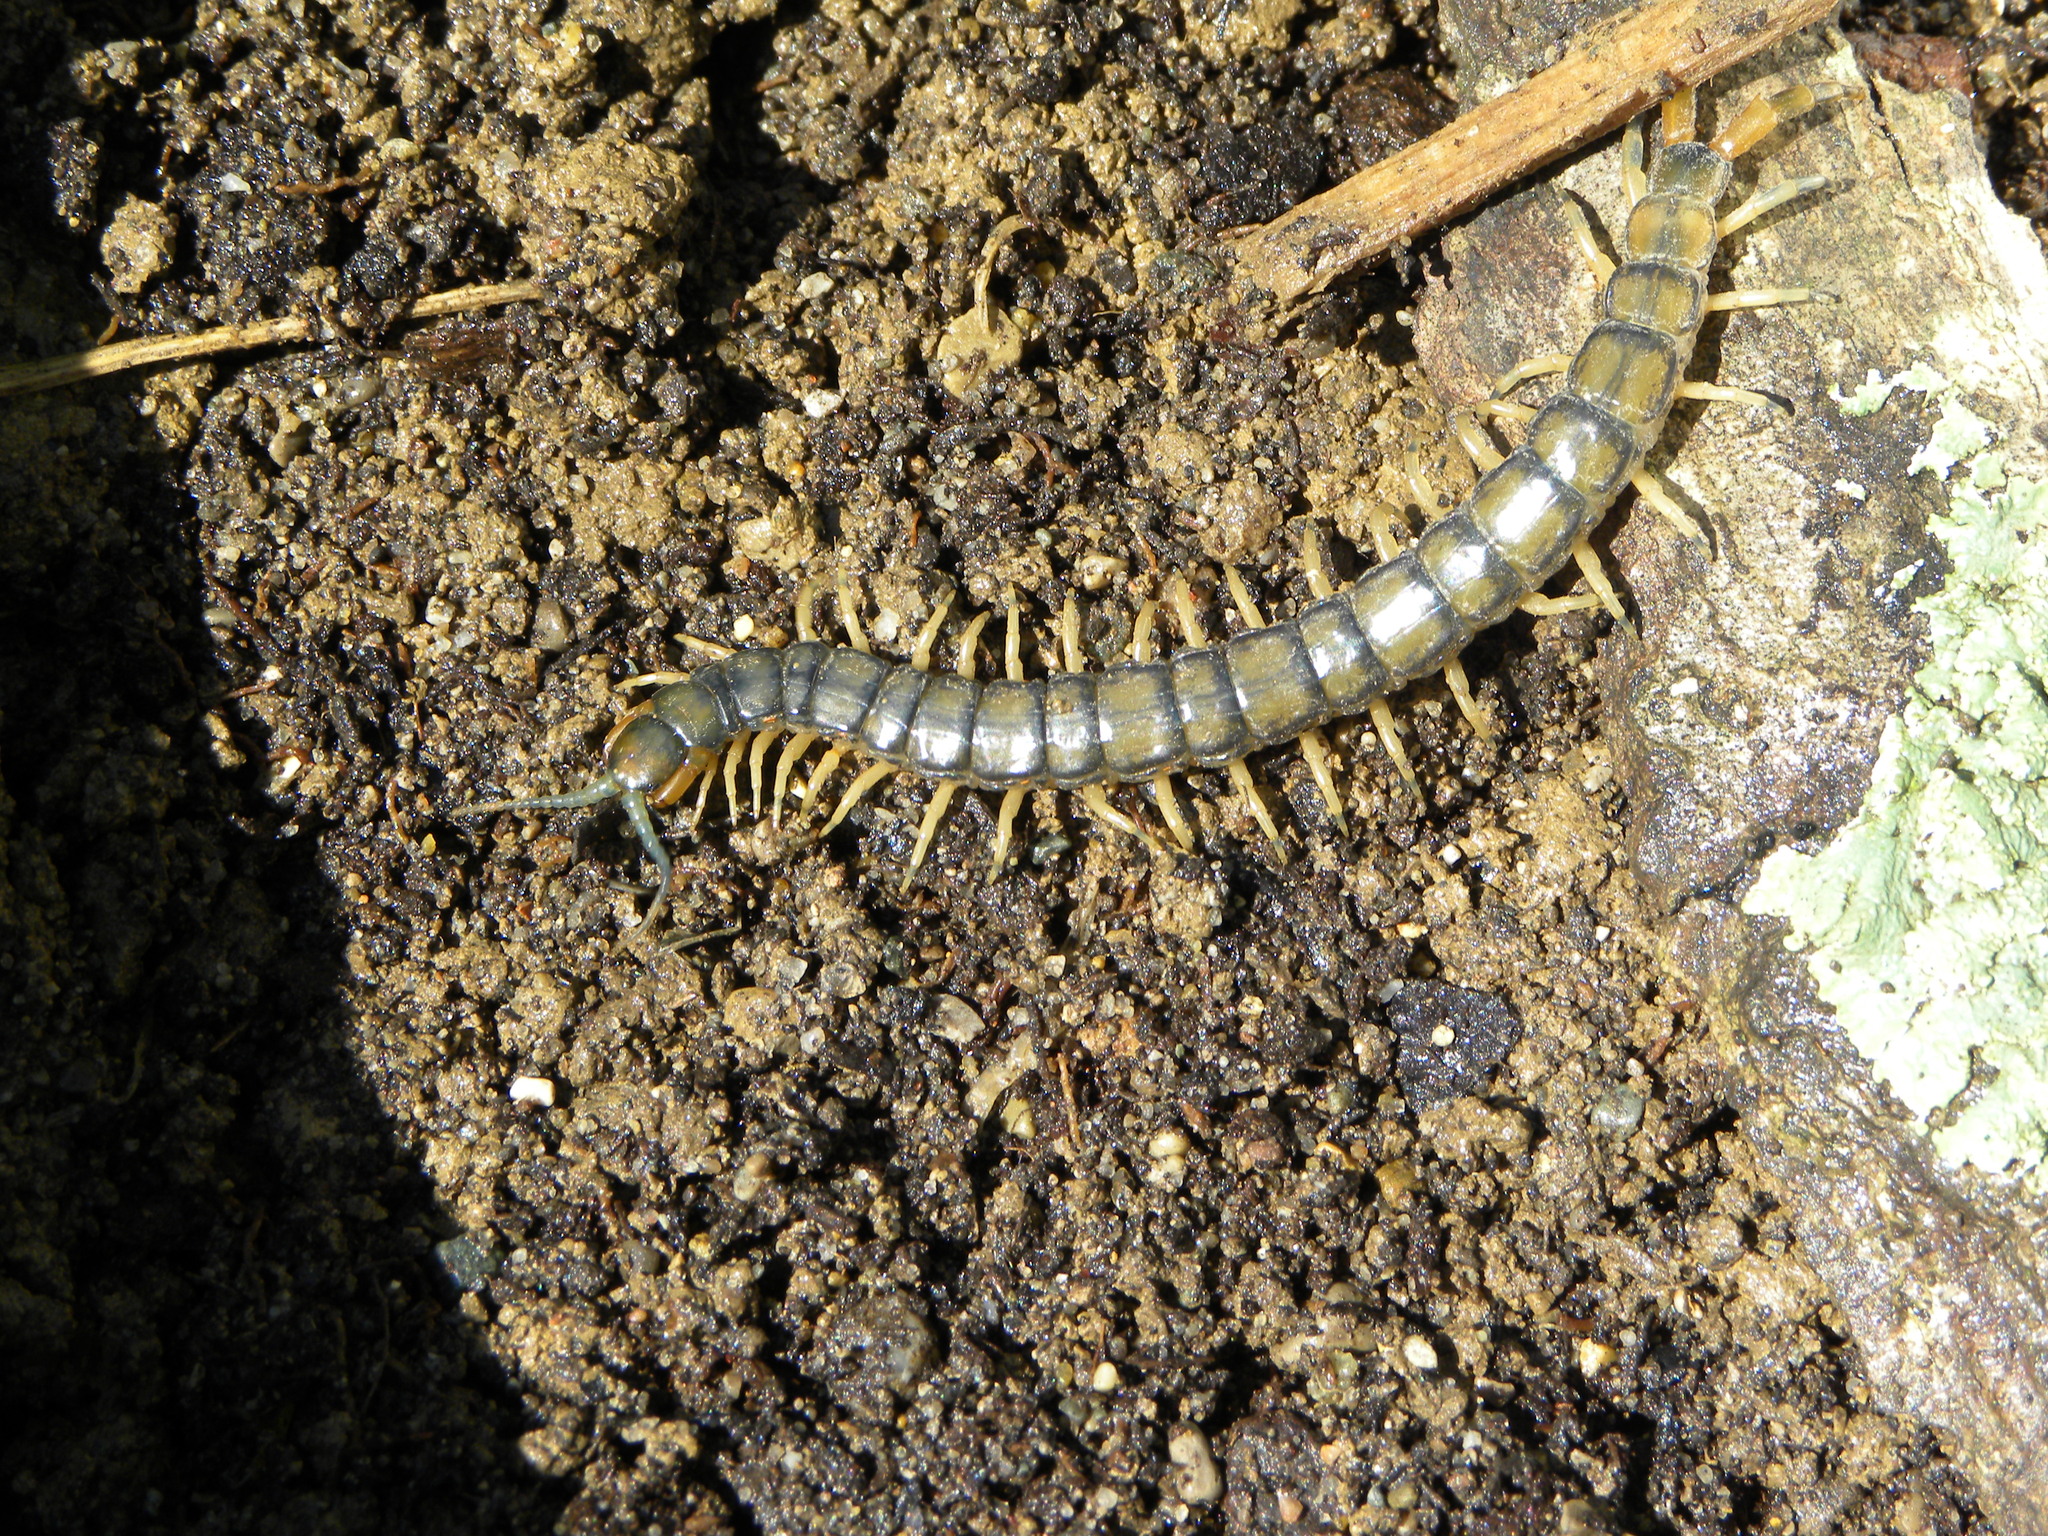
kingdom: Animalia
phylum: Arthropoda
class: Chilopoda
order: Scolopendromorpha
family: Scolopendridae
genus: Hemiscolopendra
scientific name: Hemiscolopendra marginata
